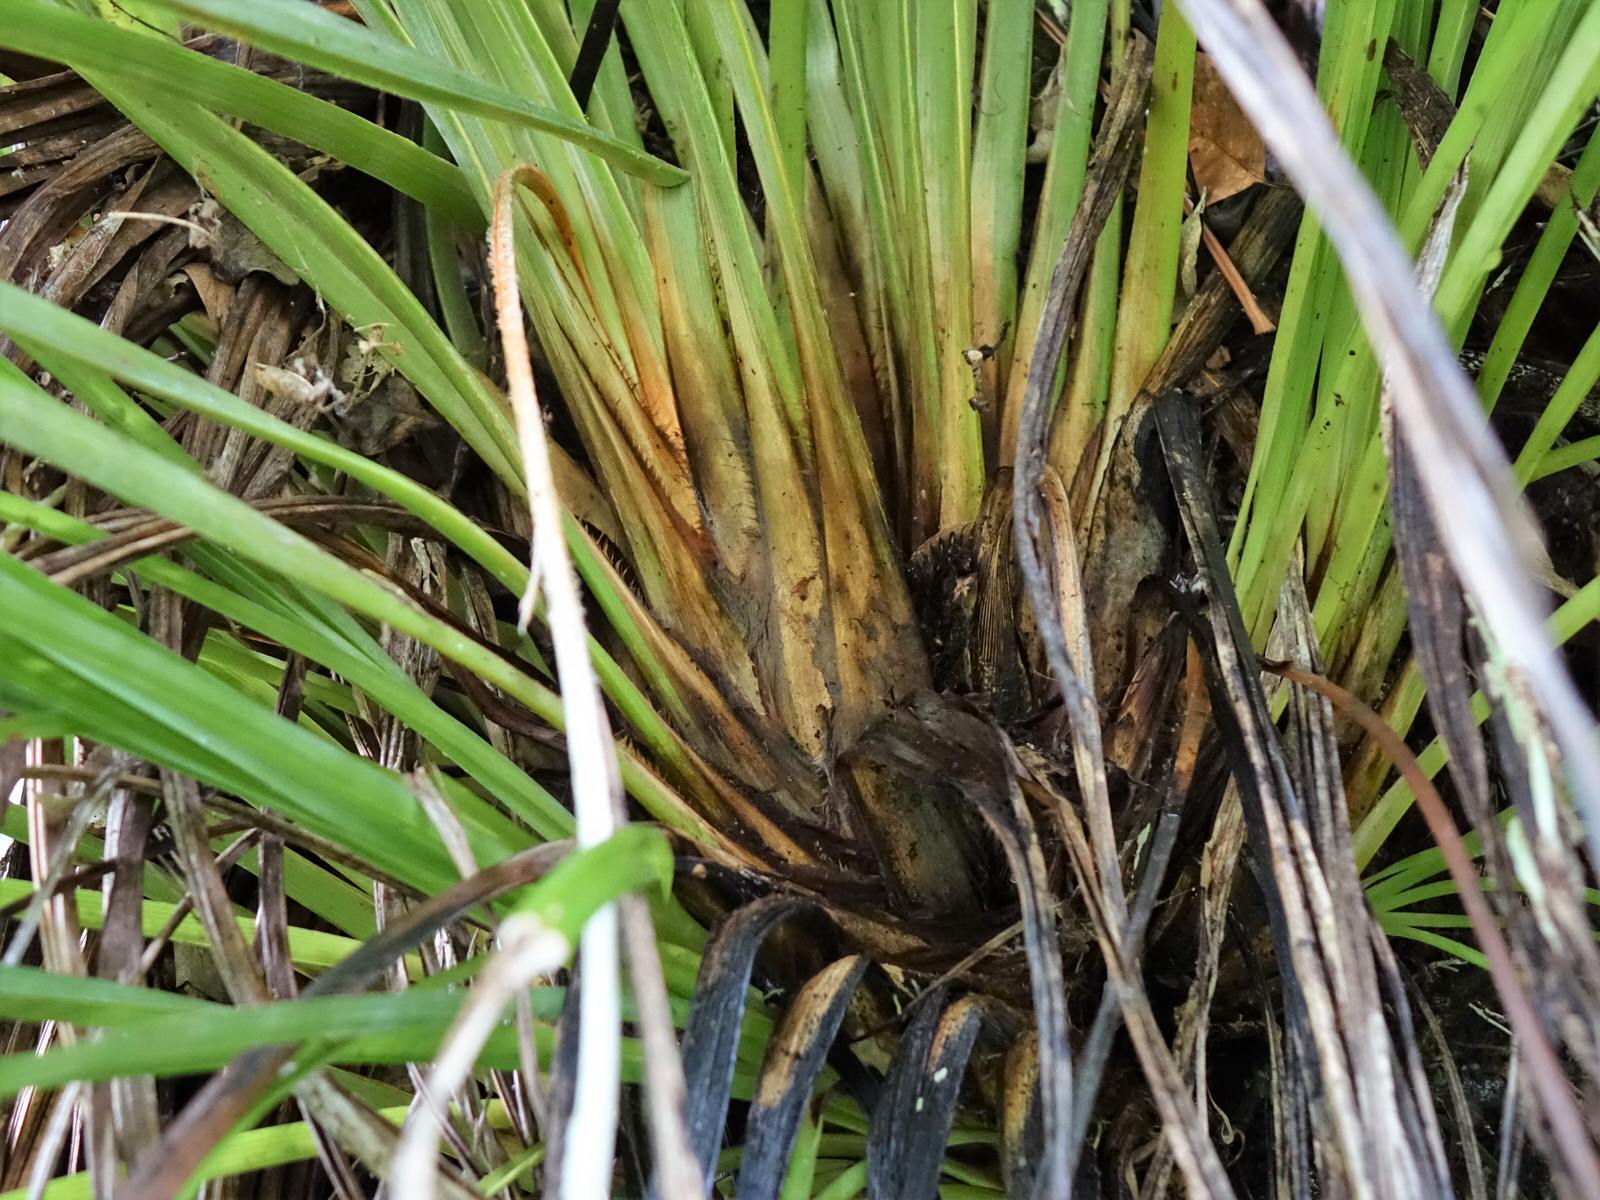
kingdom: Plantae
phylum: Tracheophyta
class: Liliopsida
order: Asparagales
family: Asteliaceae
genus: Astelia
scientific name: Astelia solandri
